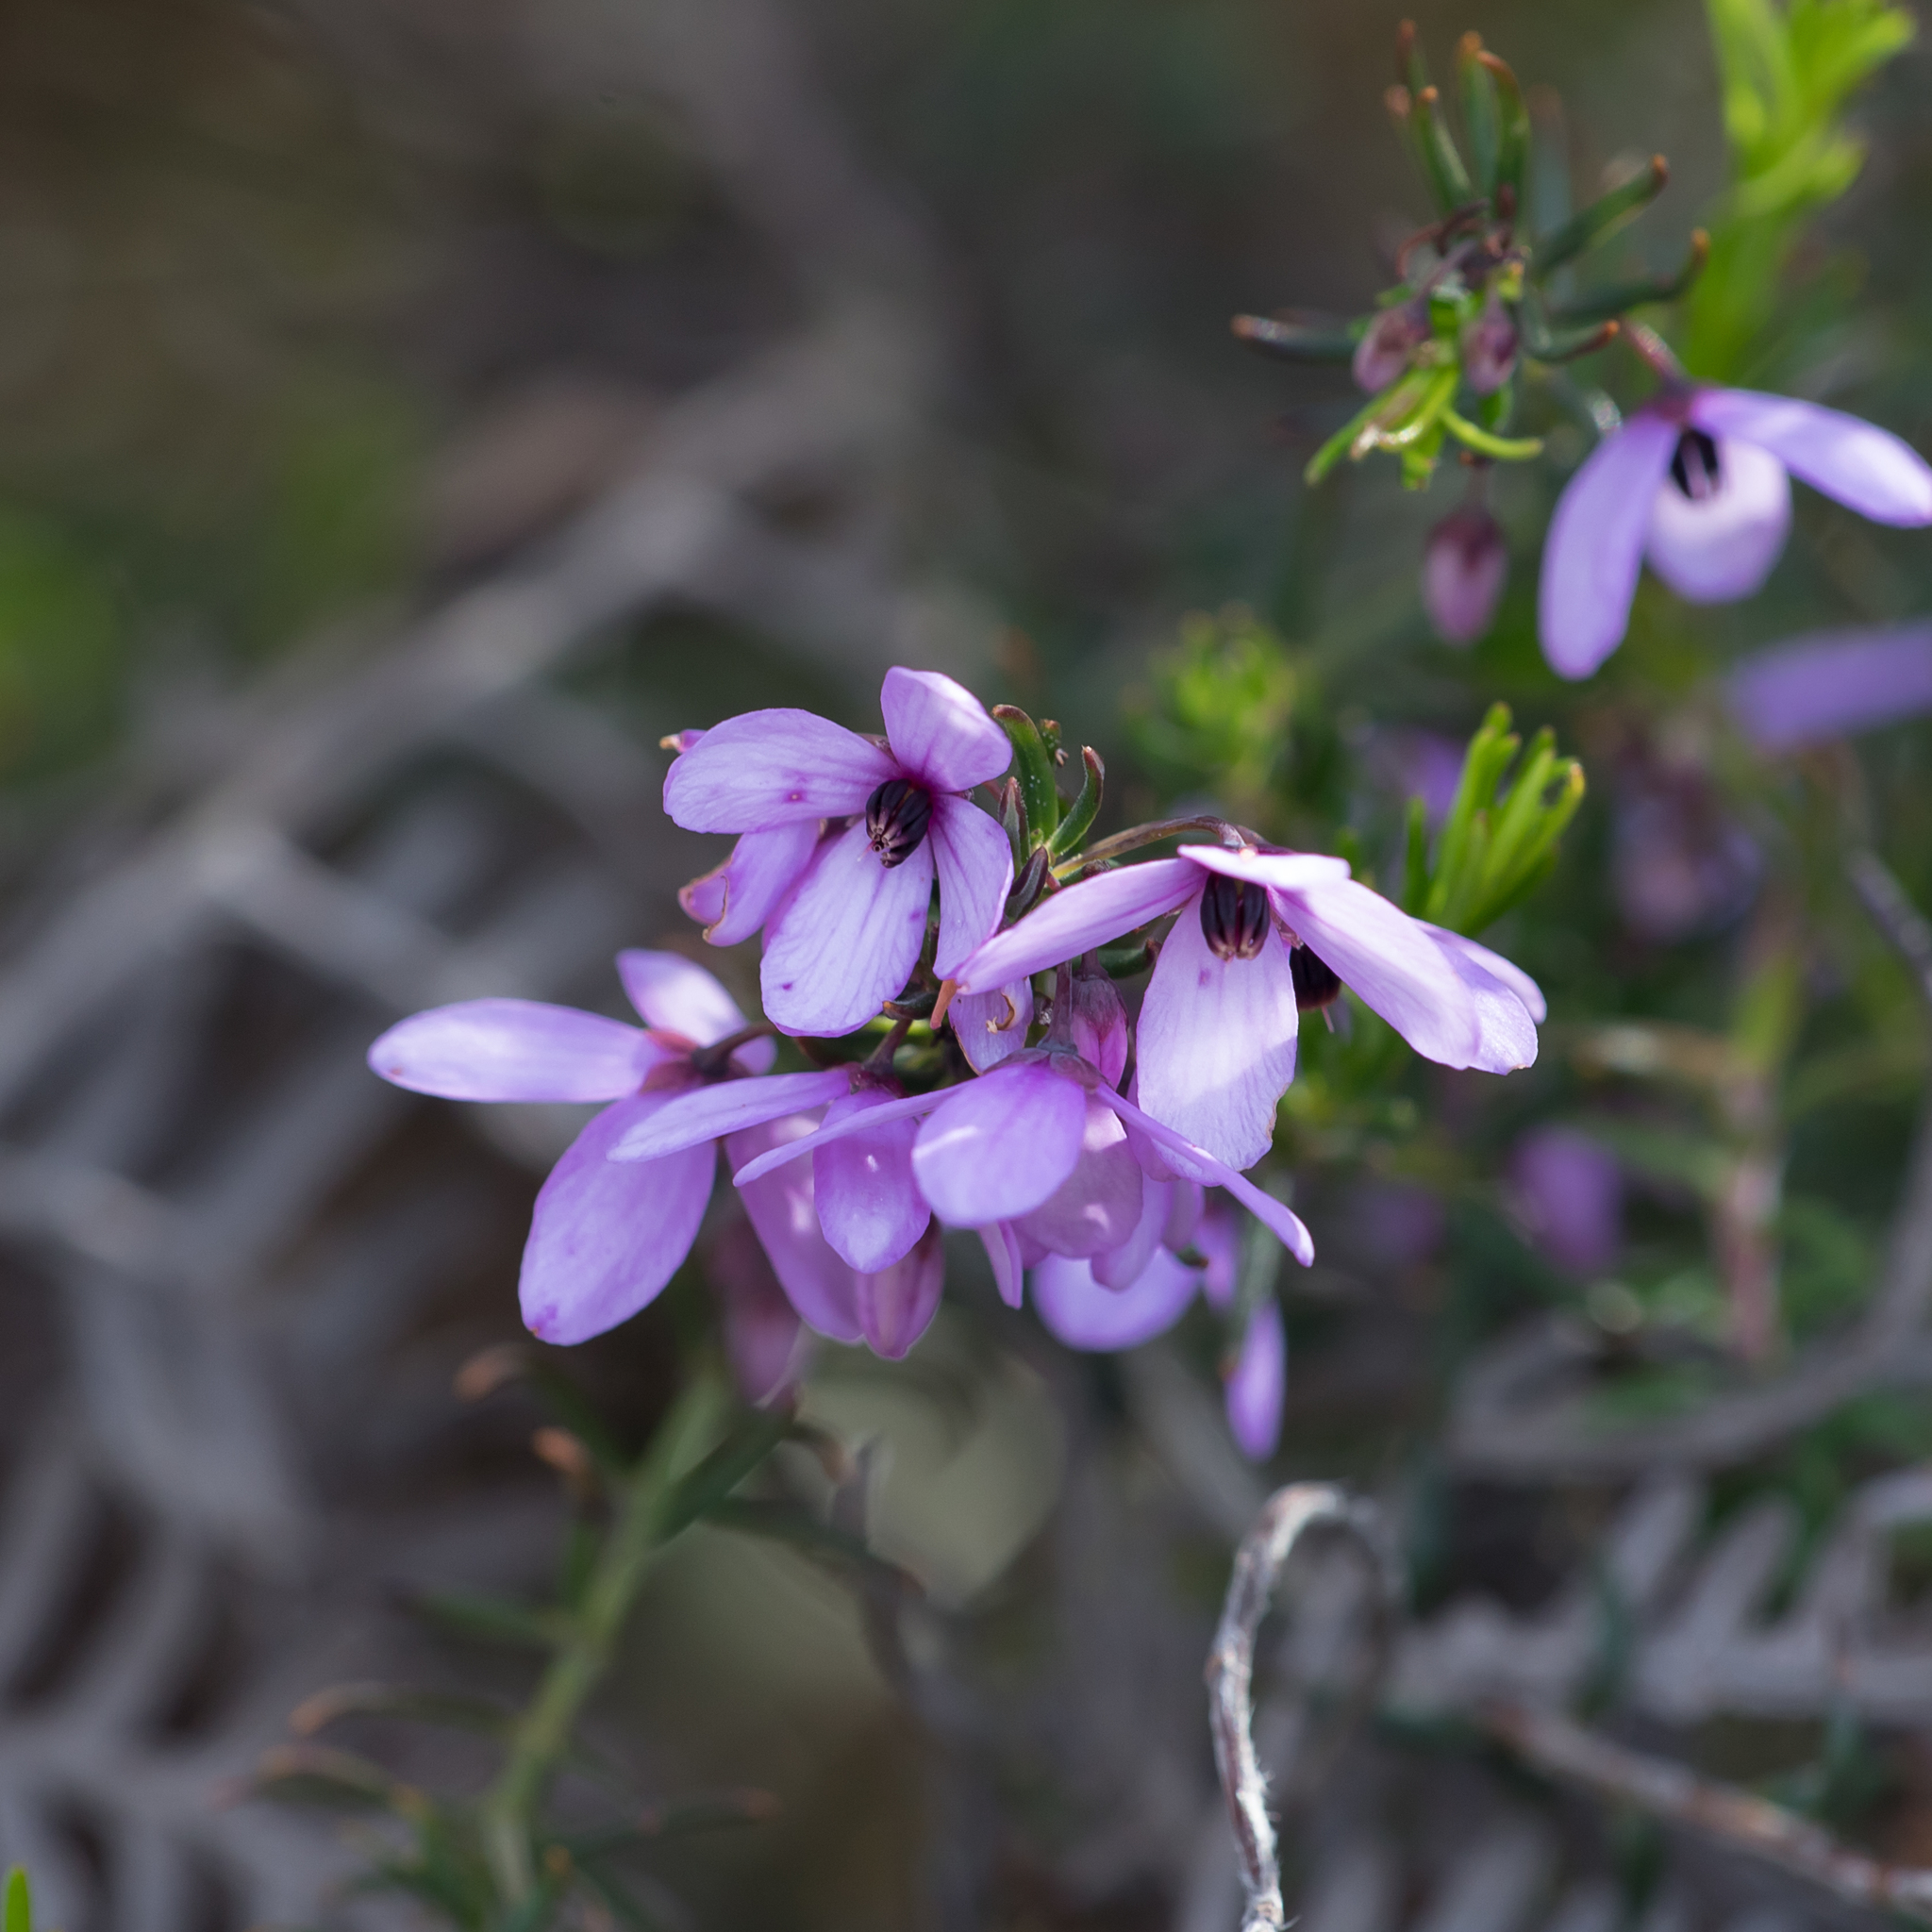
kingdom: Plantae
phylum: Tracheophyta
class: Magnoliopsida
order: Oxalidales
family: Elaeocarpaceae
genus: Tetratheca
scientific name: Tetratheca pilosa
